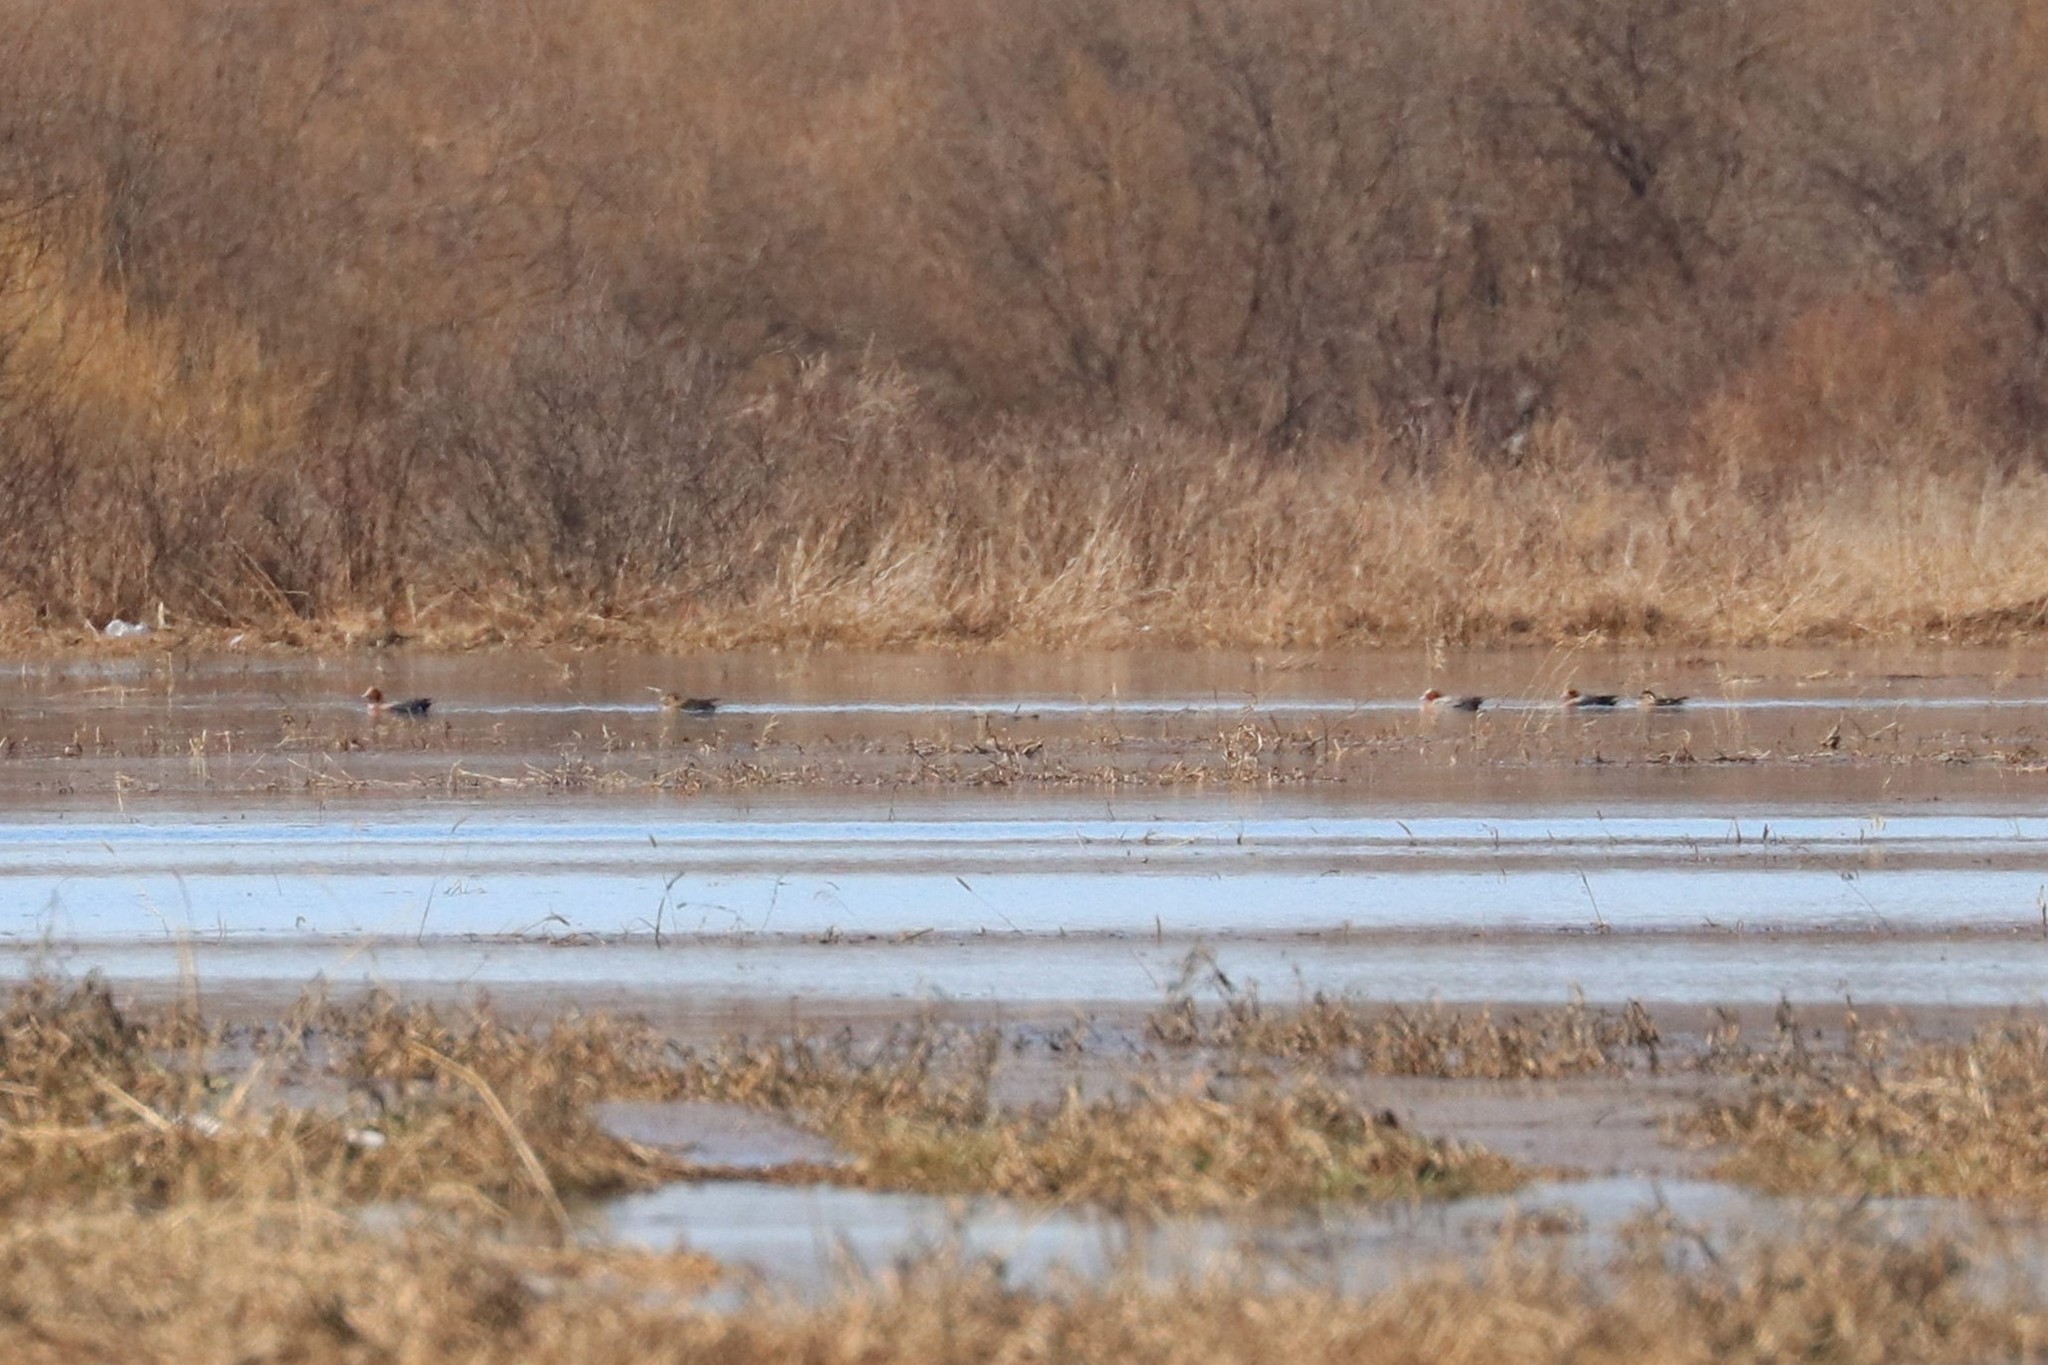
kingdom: Animalia
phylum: Chordata
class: Aves
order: Anseriformes
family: Anatidae
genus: Mareca
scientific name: Mareca penelope
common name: Eurasian wigeon
